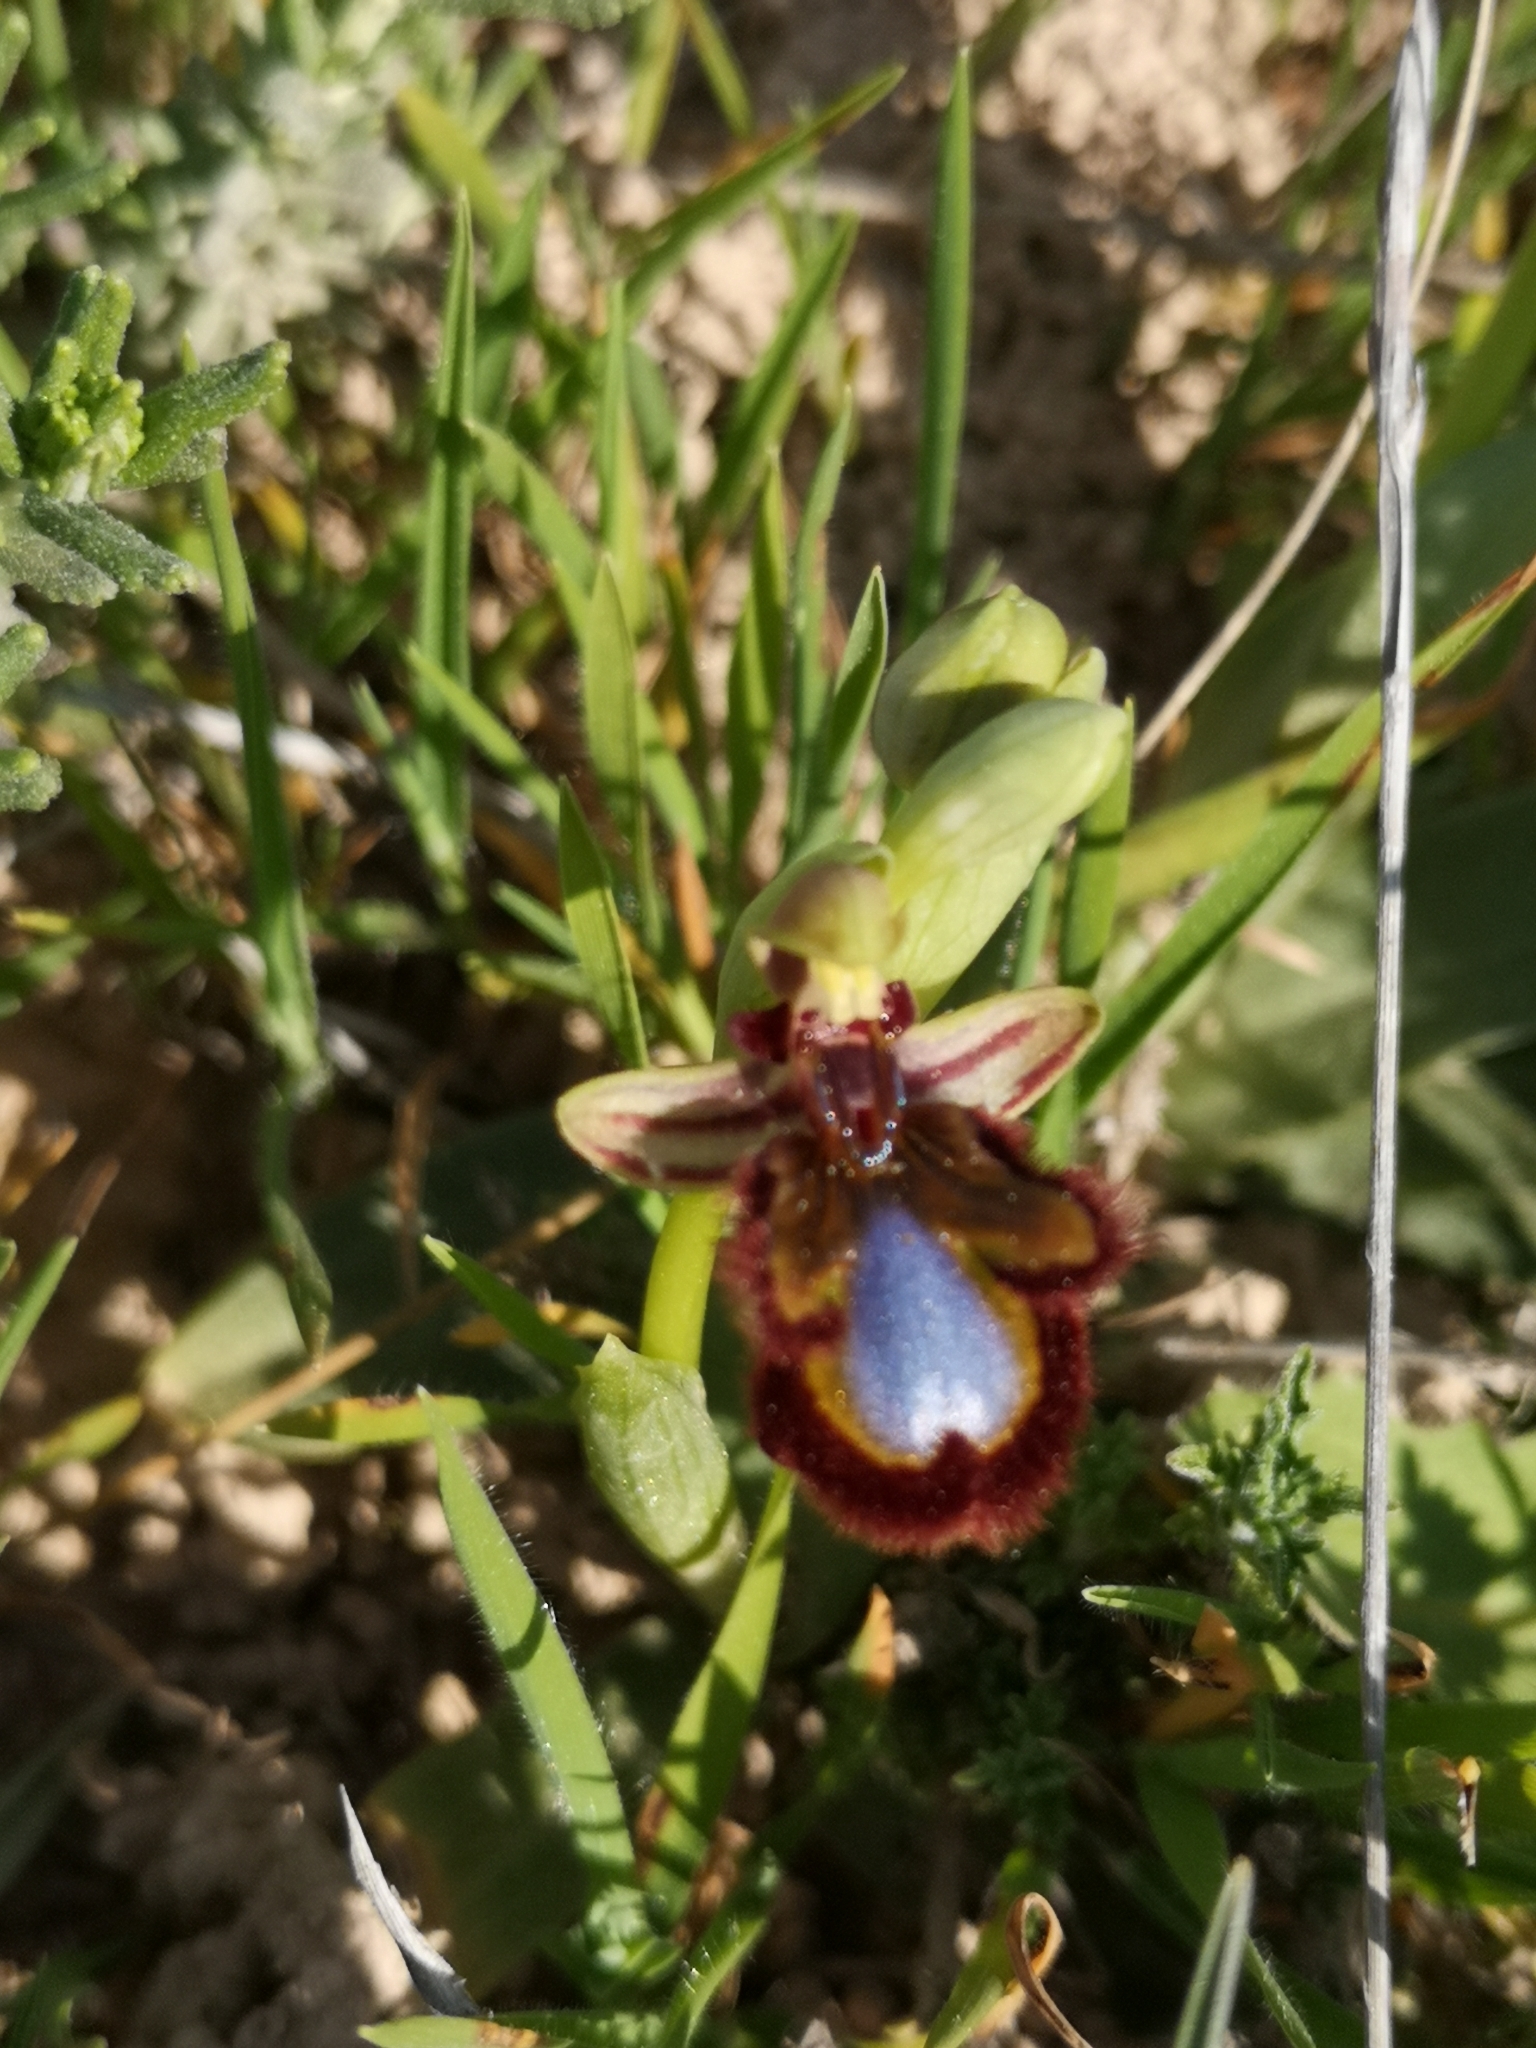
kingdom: Plantae
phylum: Tracheophyta
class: Liliopsida
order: Asparagales
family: Orchidaceae
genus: Ophrys
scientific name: Ophrys speculum
